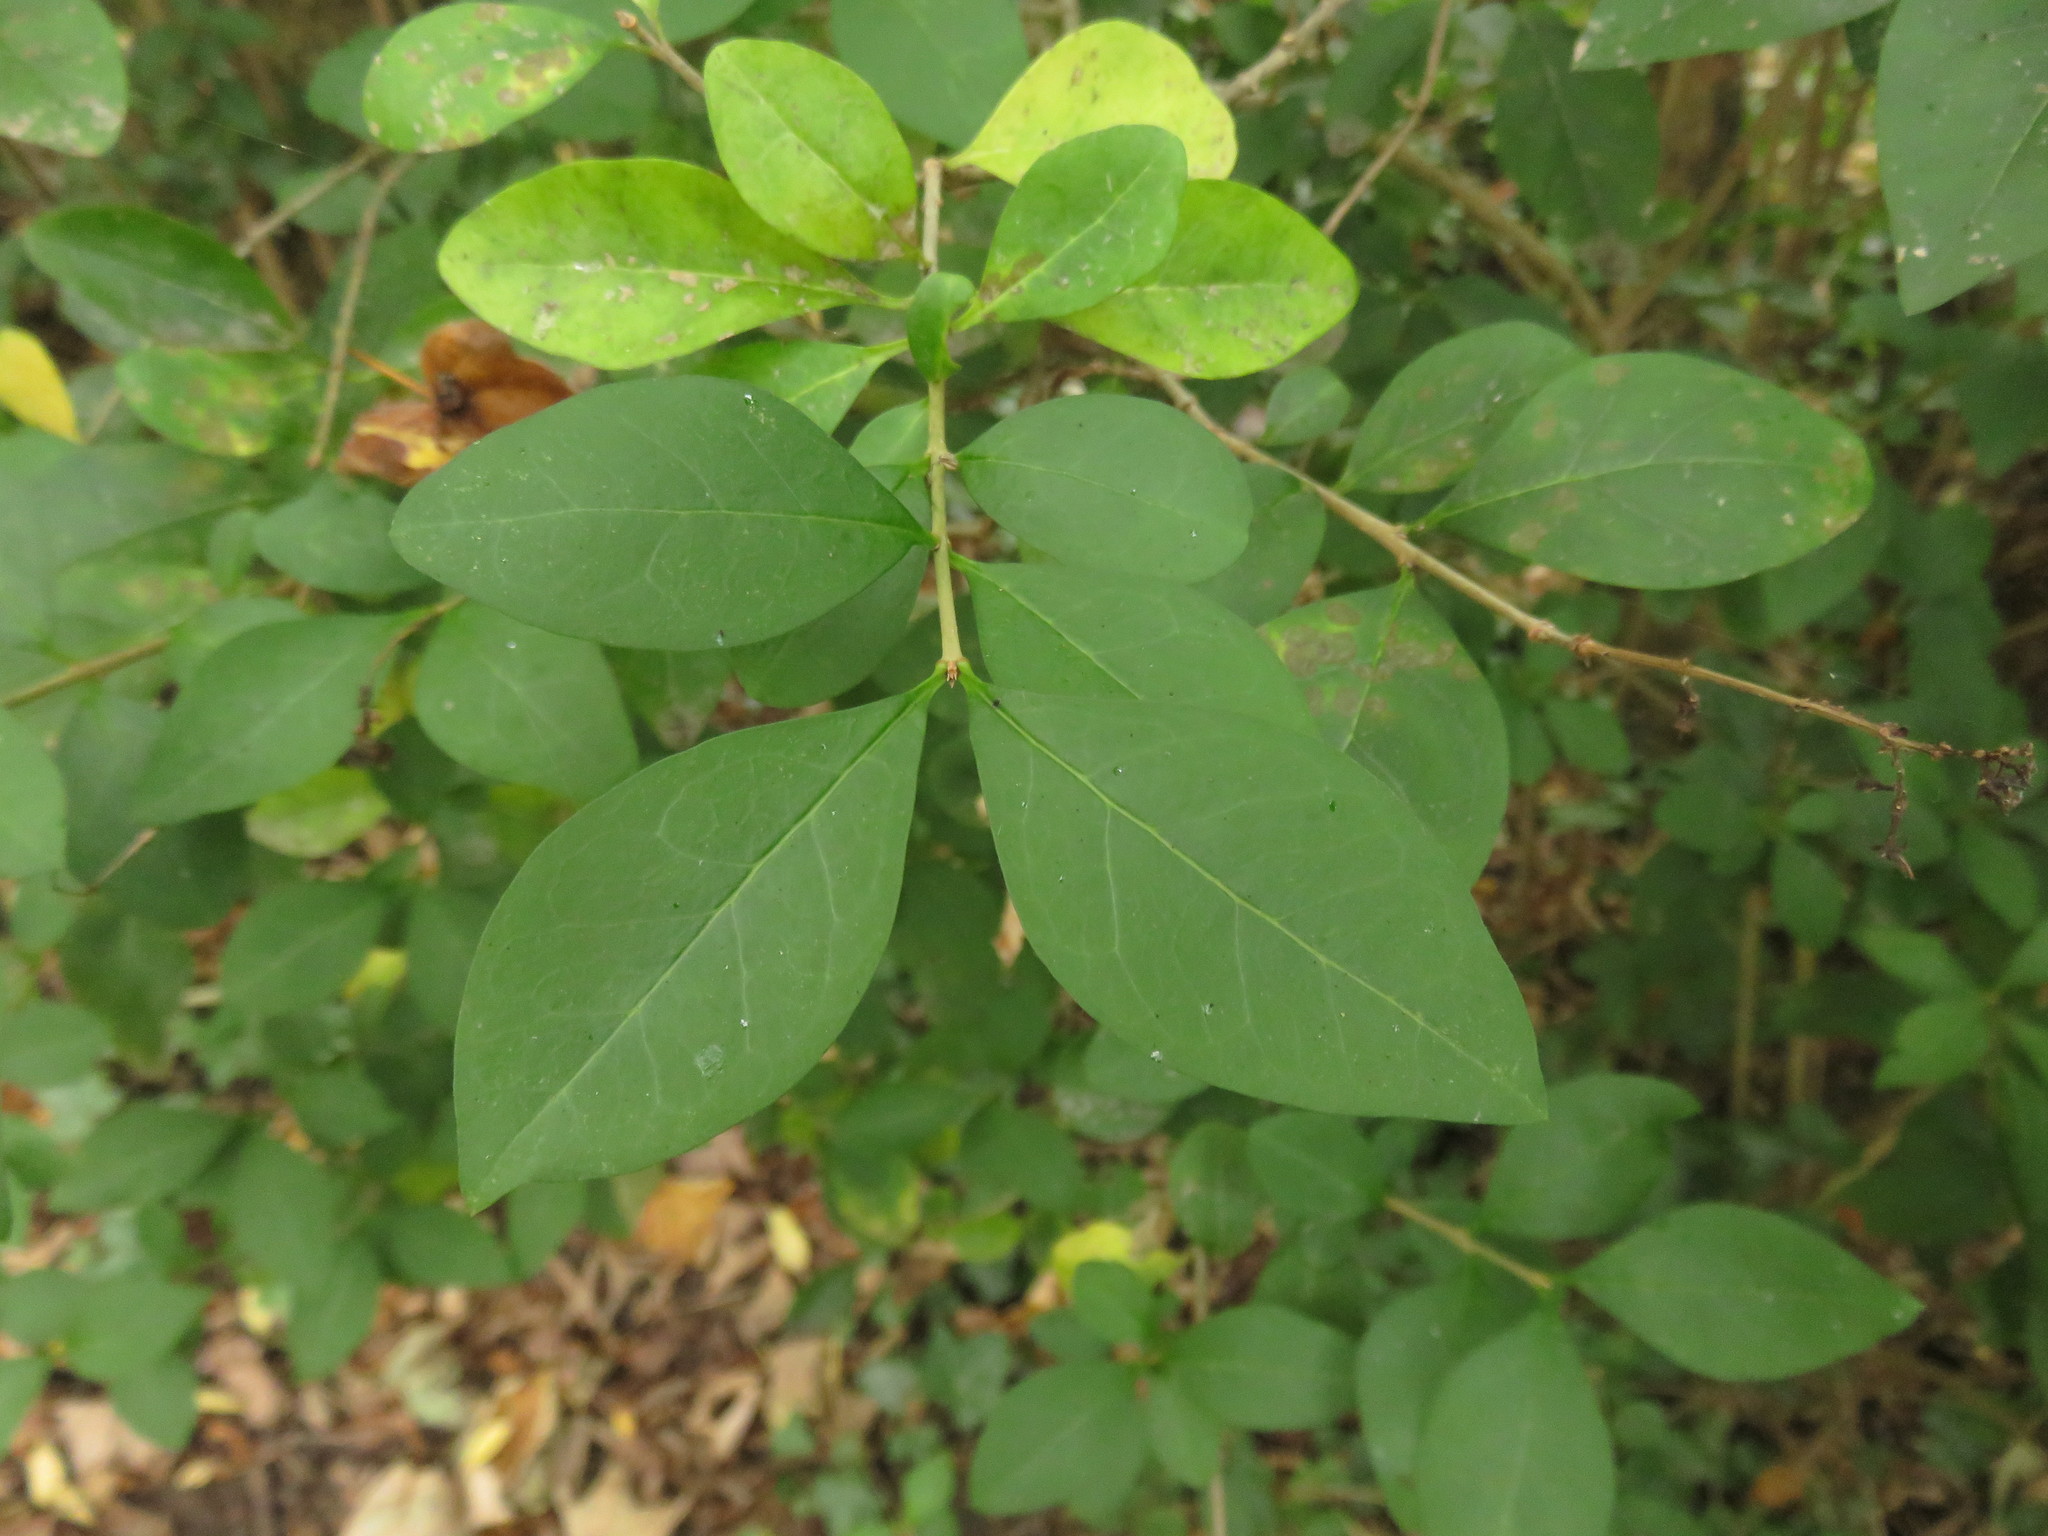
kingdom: Plantae
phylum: Tracheophyta
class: Magnoliopsida
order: Lamiales
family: Oleaceae
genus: Ligustrum
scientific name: Ligustrum ovalifolium
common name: California privet
